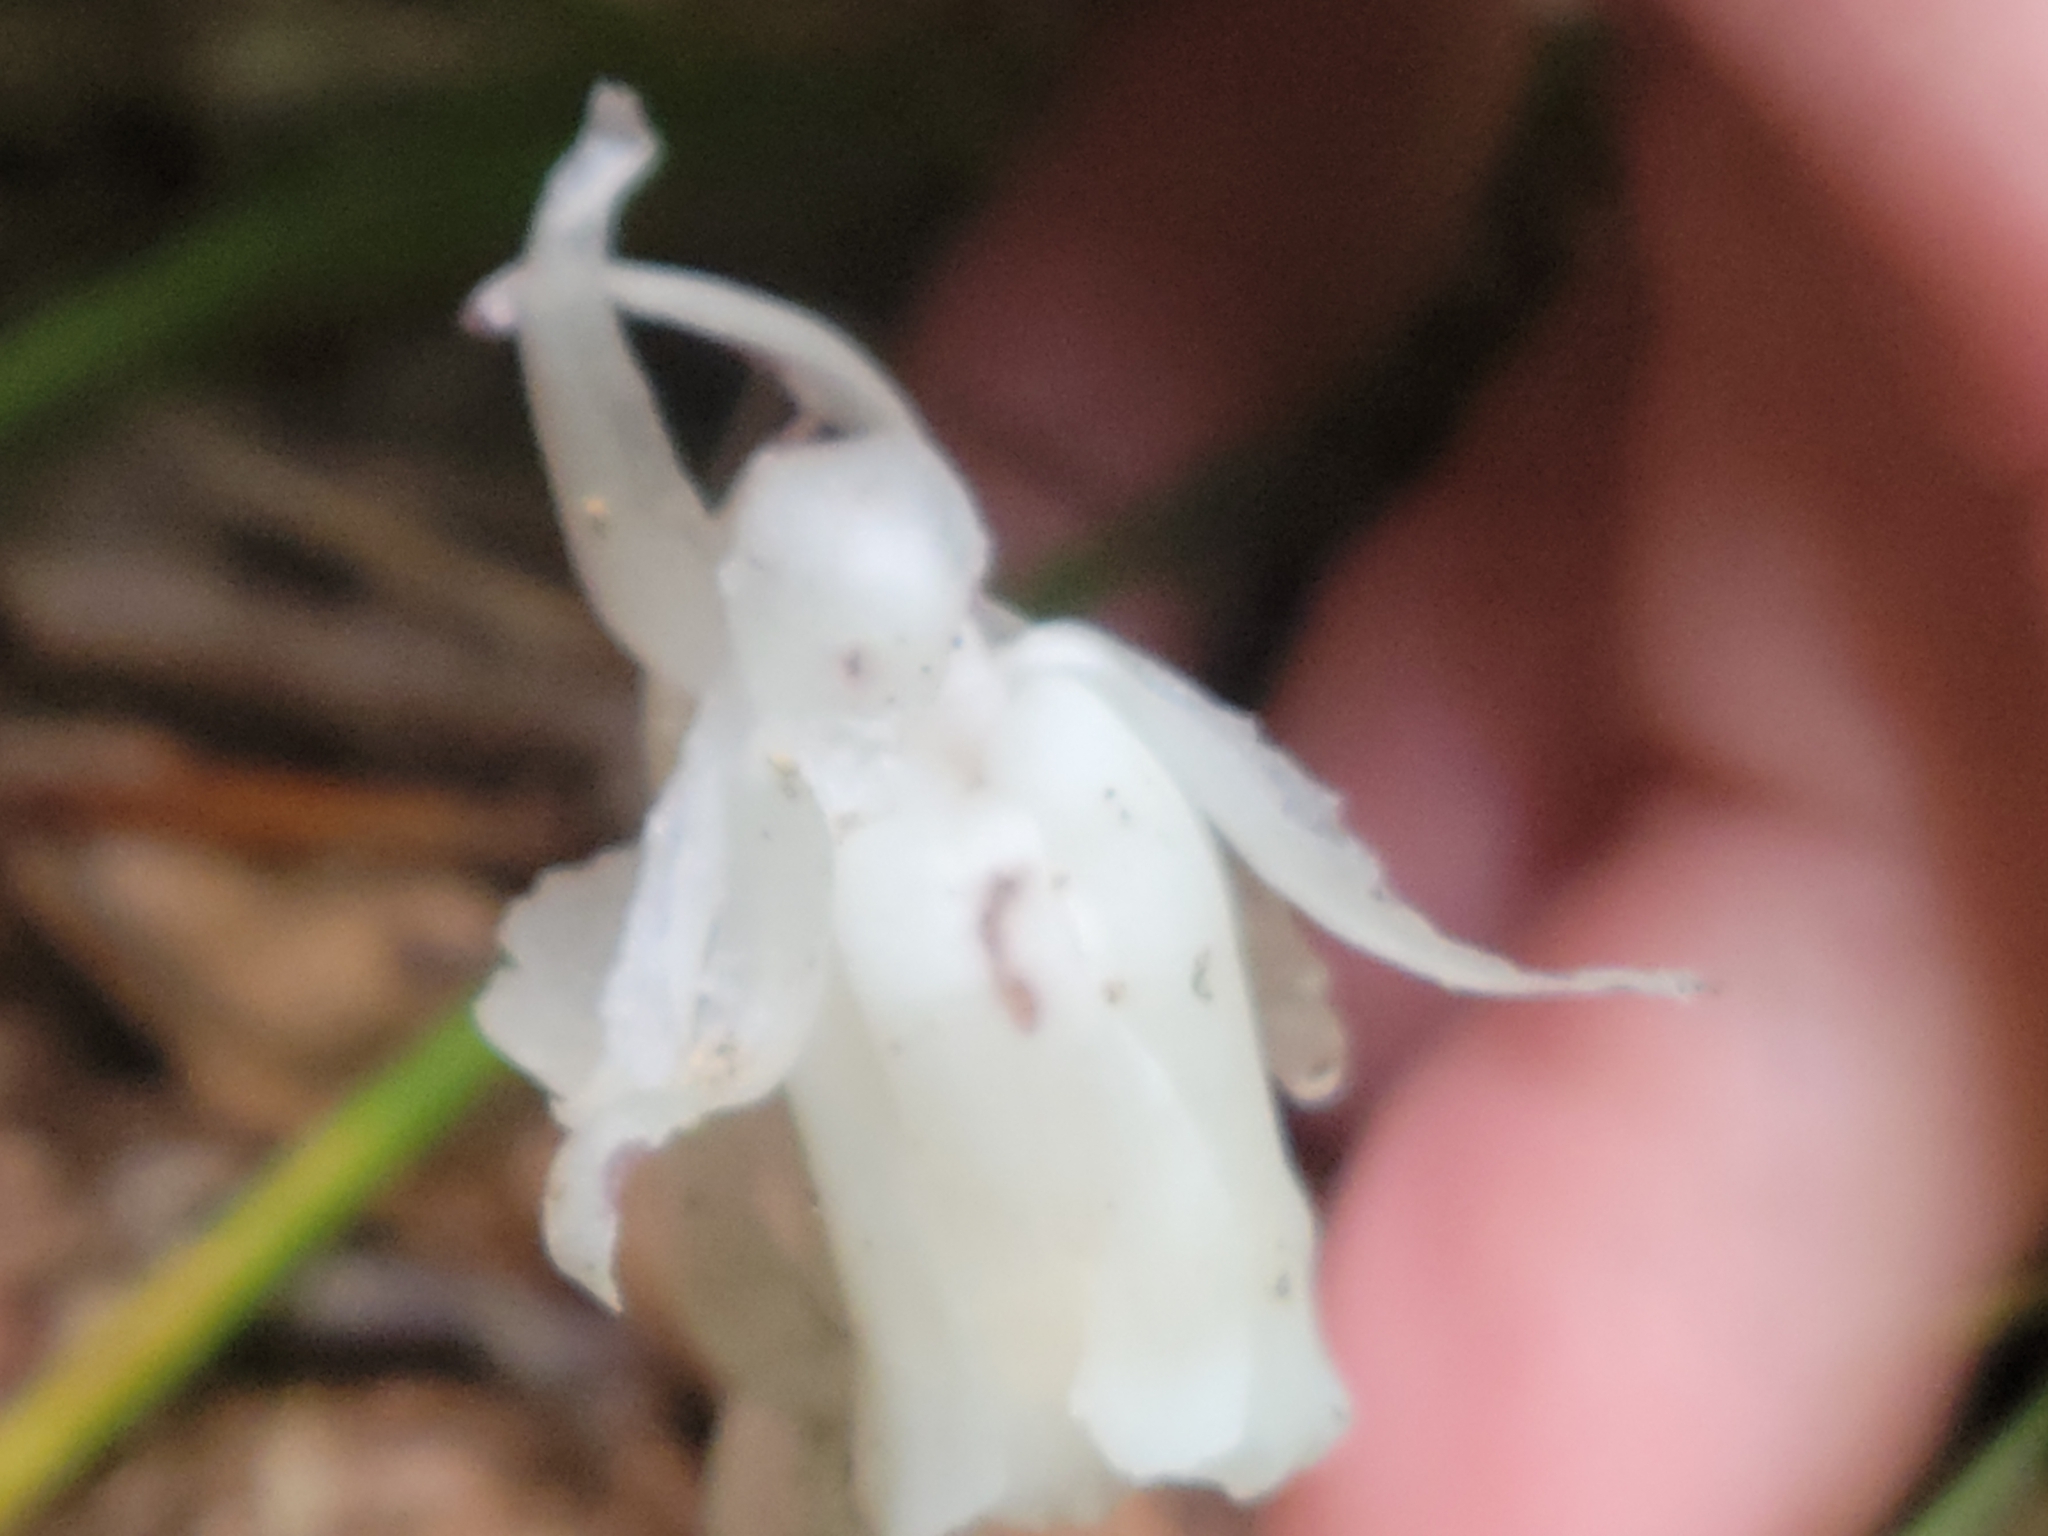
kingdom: Plantae
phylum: Tracheophyta
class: Magnoliopsida
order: Ericales
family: Ericaceae
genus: Monotropa
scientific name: Monotropa uniflora
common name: Convulsion root
